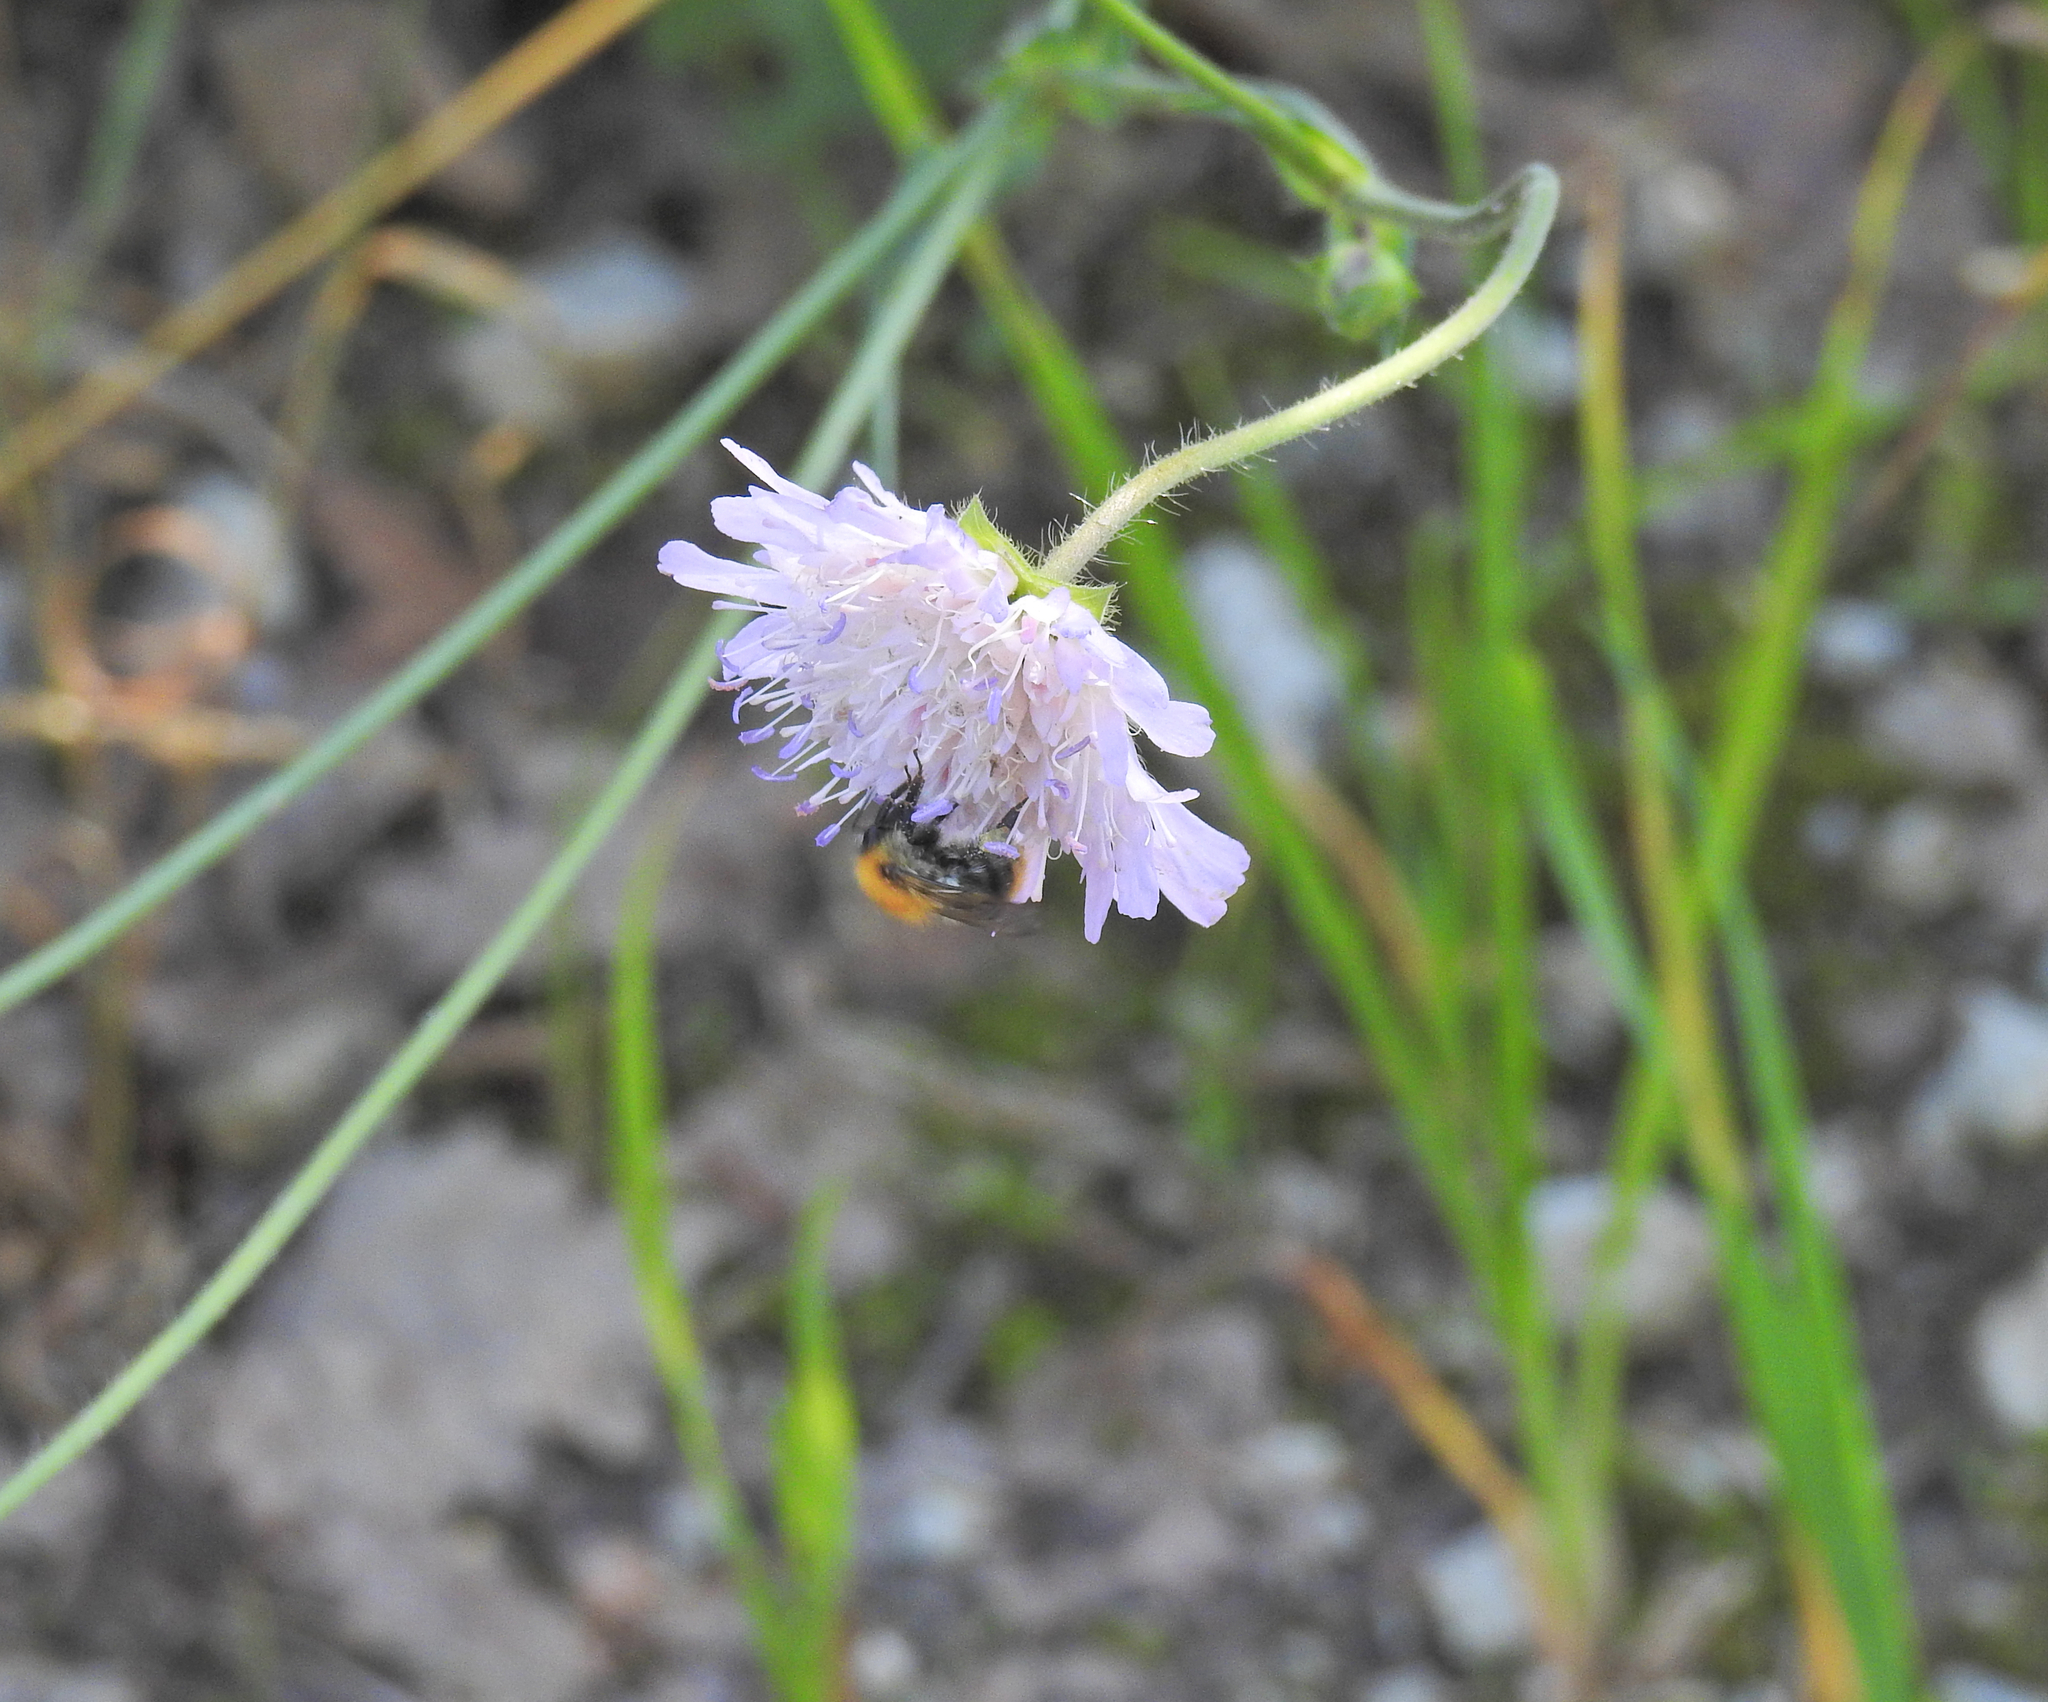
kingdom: Animalia
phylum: Arthropoda
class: Insecta
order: Hymenoptera
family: Apidae
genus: Bombus
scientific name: Bombus pascuorum
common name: Common carder bee
